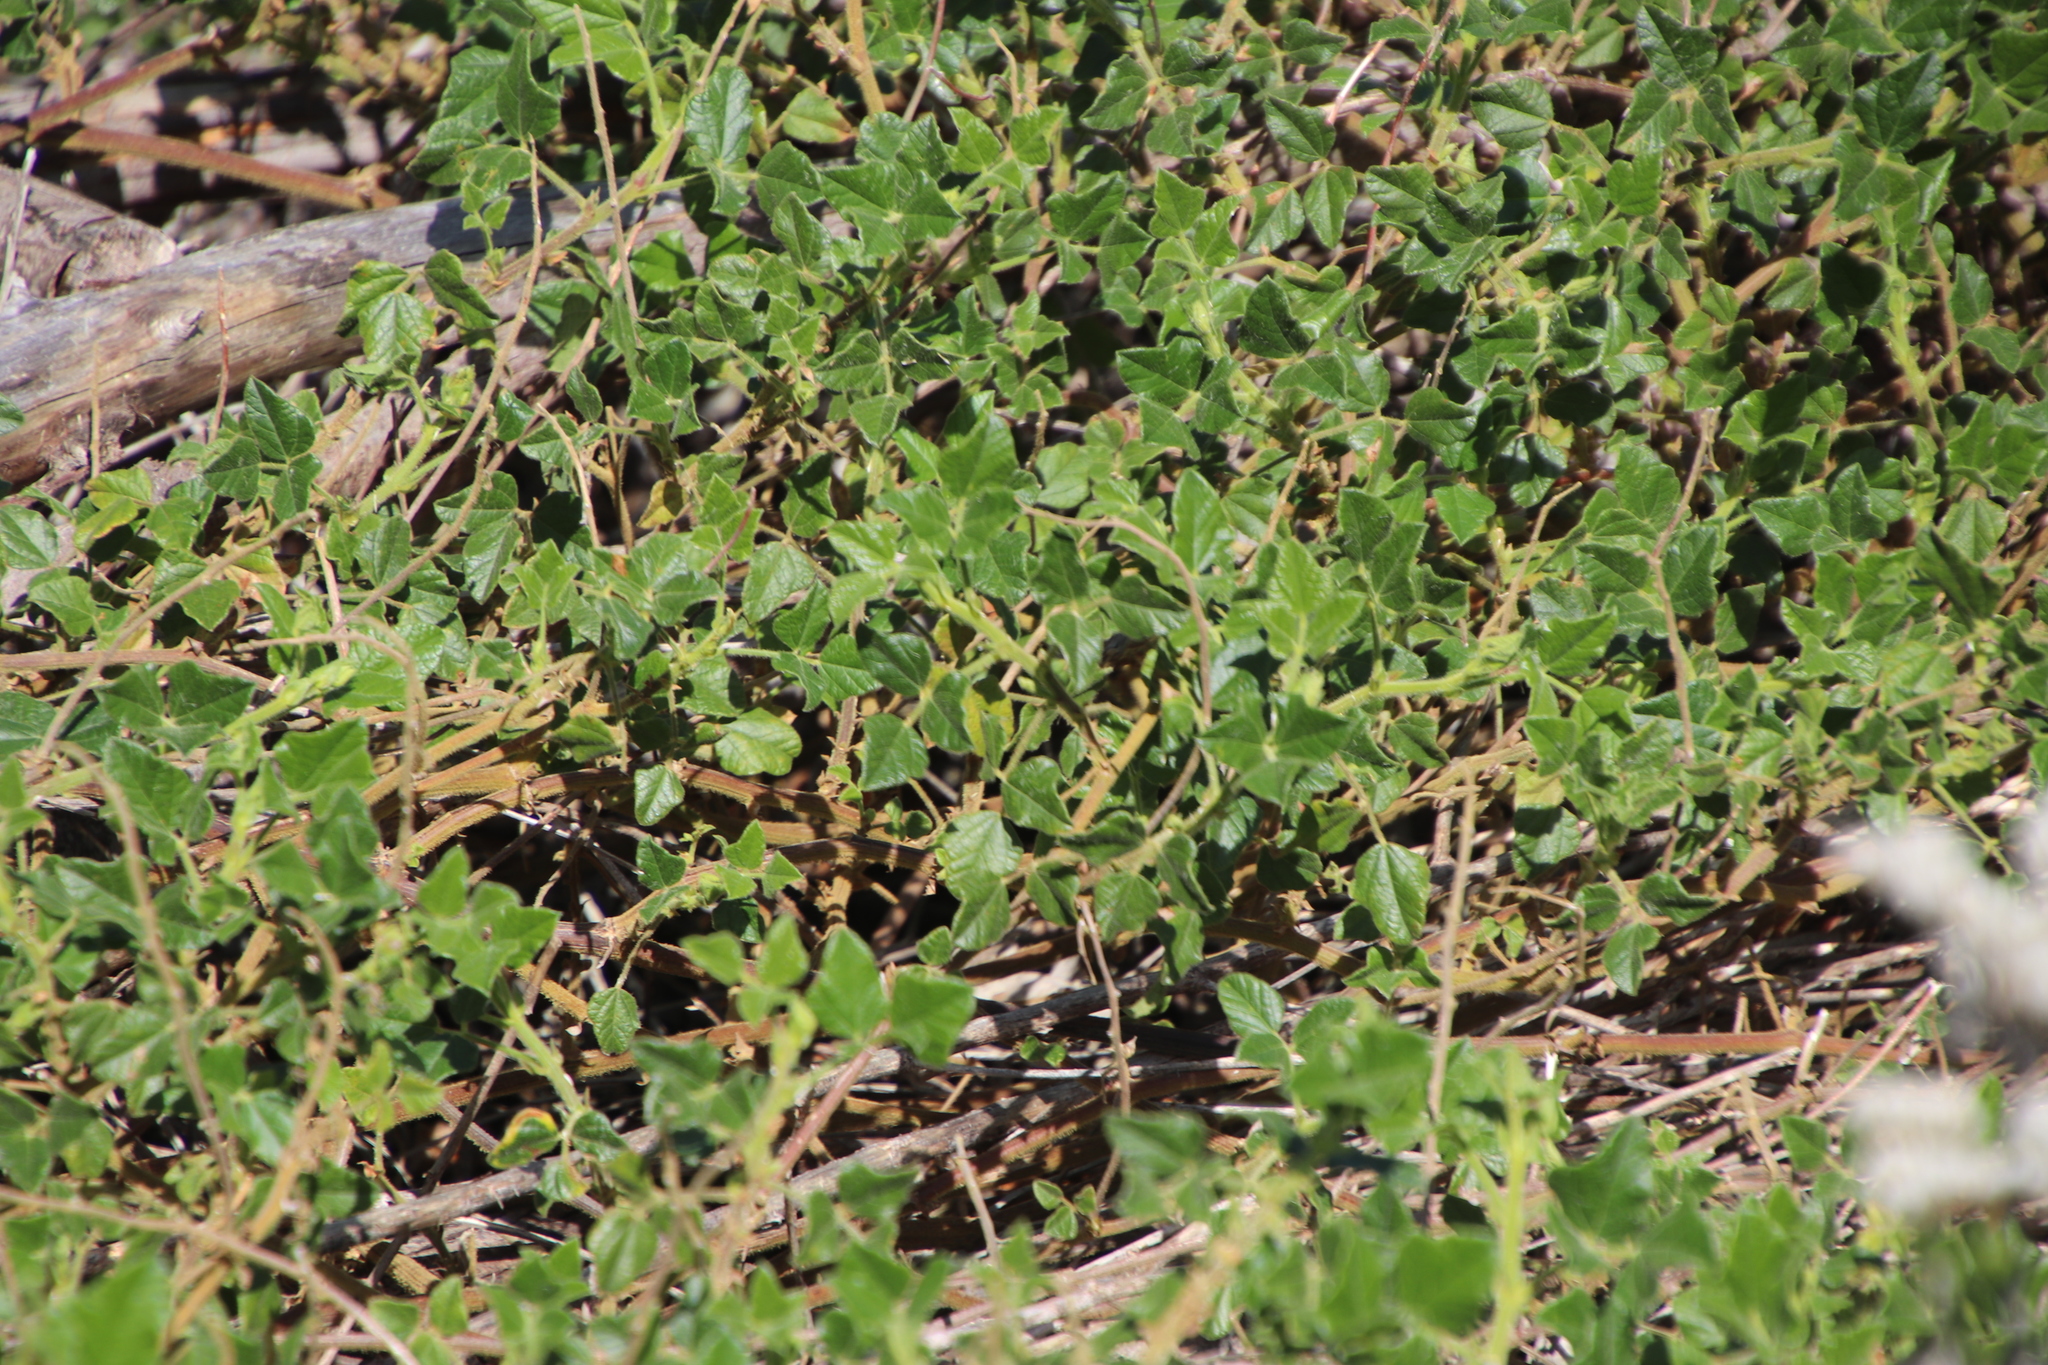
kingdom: Plantae
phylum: Tracheophyta
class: Magnoliopsida
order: Fabales
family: Fabaceae
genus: Bolusafra
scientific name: Bolusafra bituminosa
